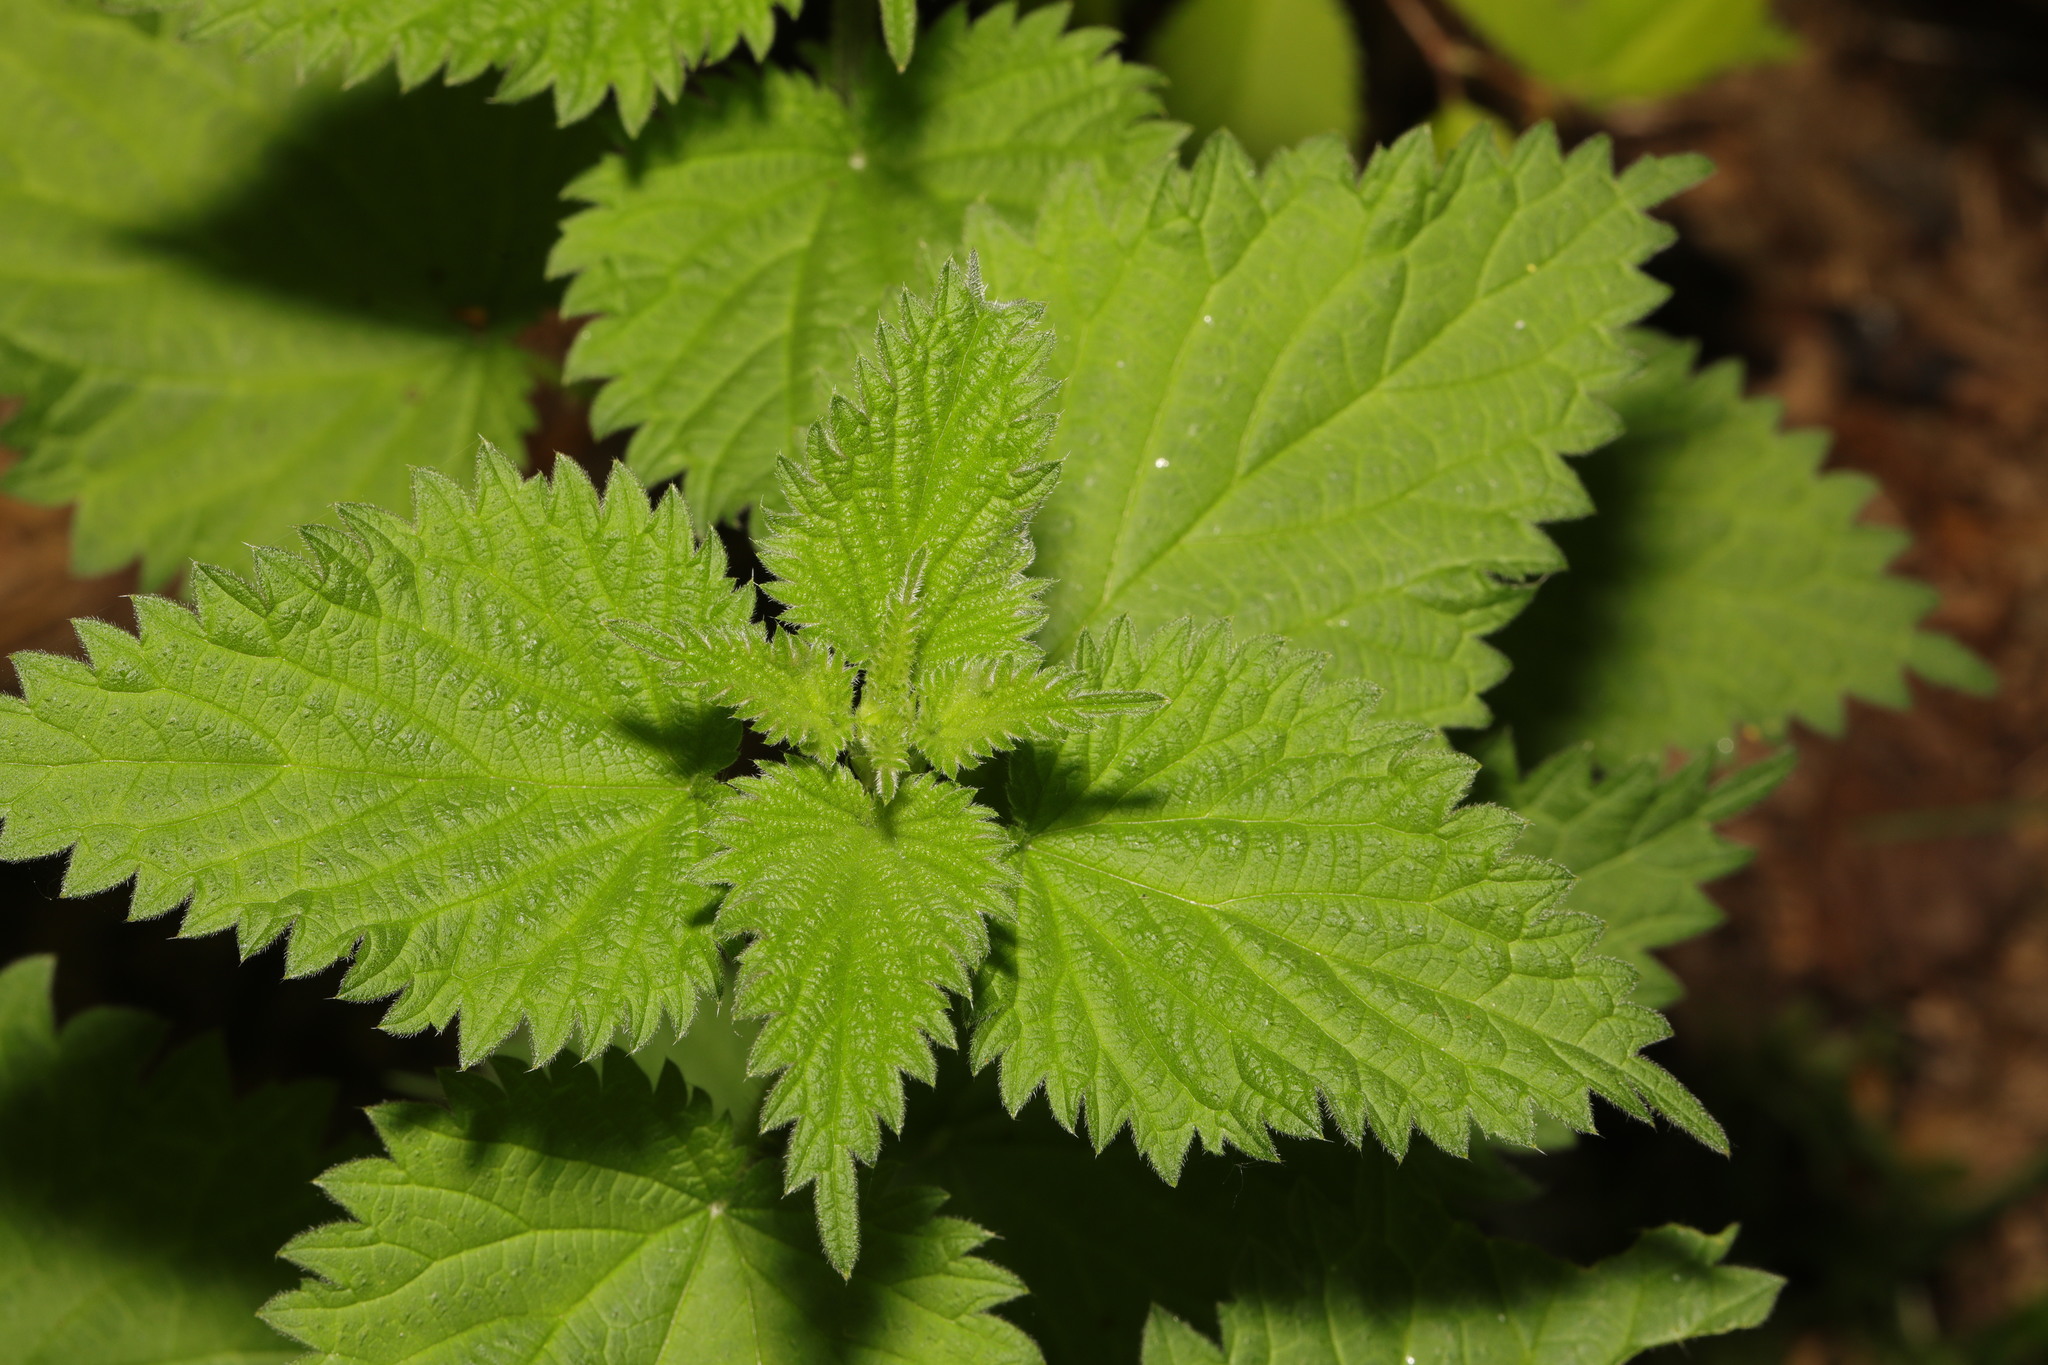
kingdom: Plantae
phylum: Tracheophyta
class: Magnoliopsida
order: Rosales
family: Urticaceae
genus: Urtica
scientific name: Urtica dioica
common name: Common nettle
